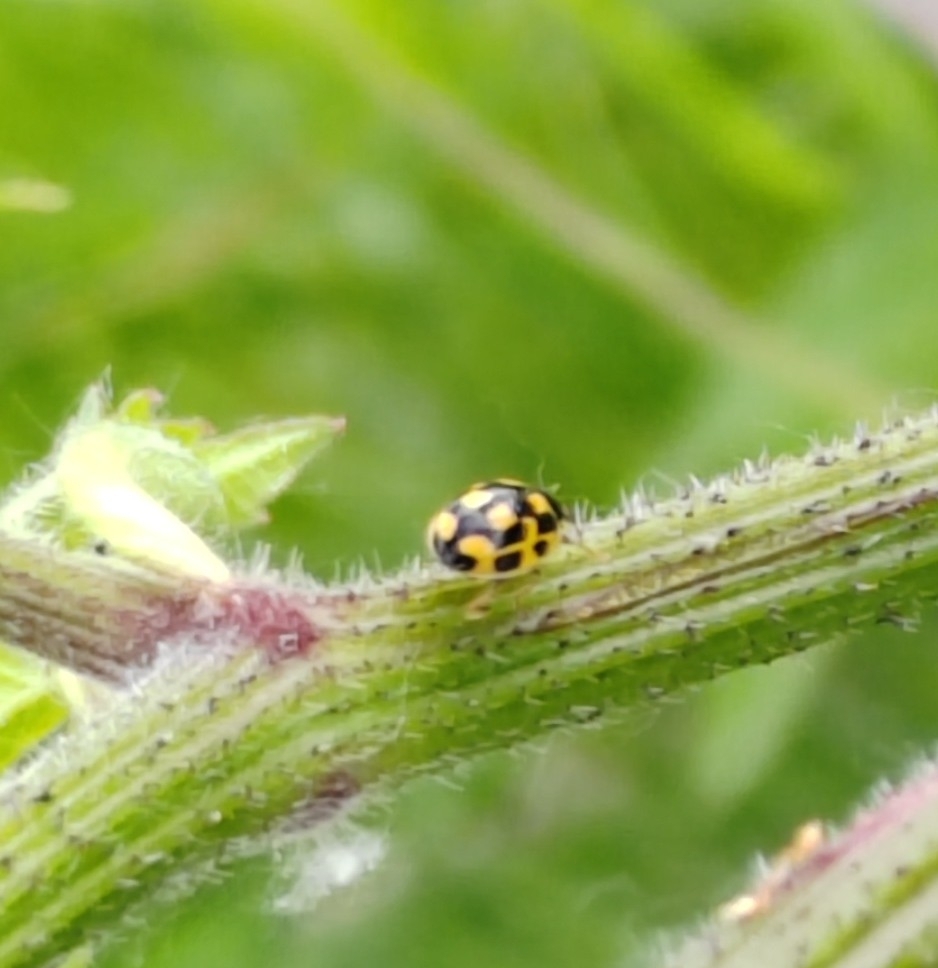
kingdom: Animalia
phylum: Arthropoda
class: Insecta
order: Coleoptera
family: Coccinellidae
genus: Propylaea
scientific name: Propylaea quatuordecimpunctata
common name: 14-spotted ladybird beetle
